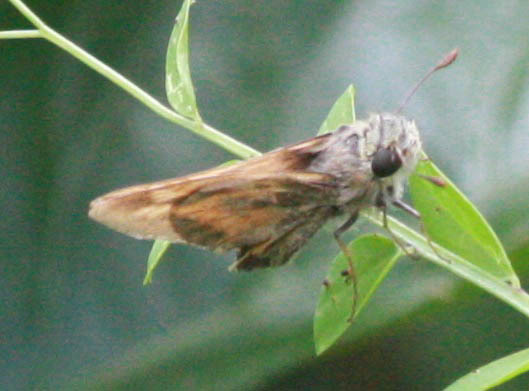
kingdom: Animalia
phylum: Arthropoda
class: Insecta
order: Lepidoptera
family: Hesperiidae
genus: Atalopedes
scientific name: Atalopedes
